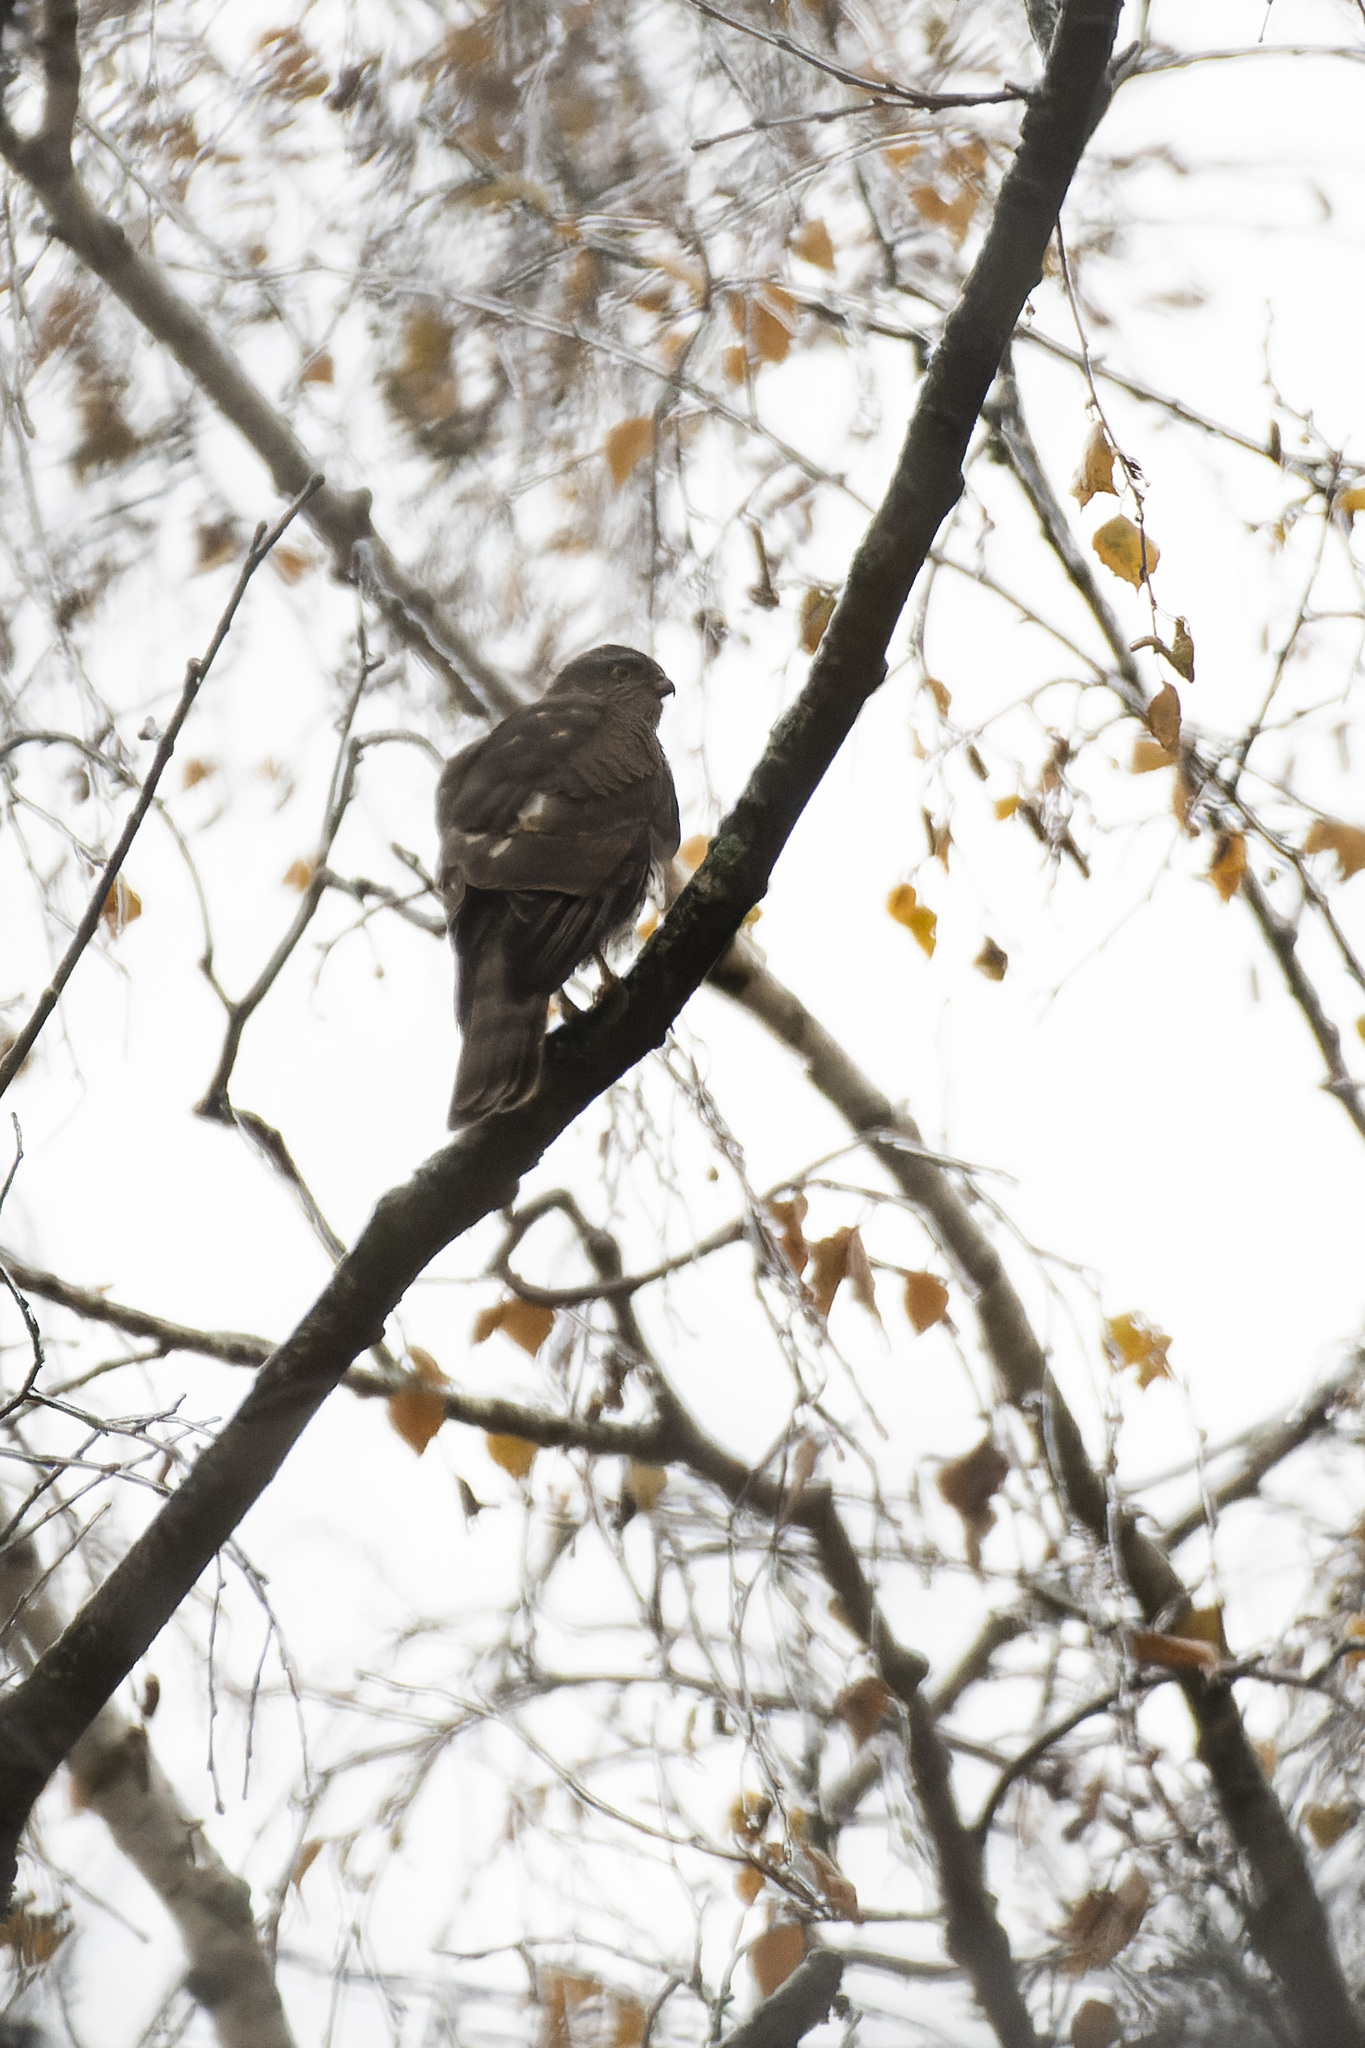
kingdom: Animalia
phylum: Chordata
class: Aves
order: Accipitriformes
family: Accipitridae
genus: Accipiter
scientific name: Accipiter nisus
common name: Eurasian sparrowhawk
